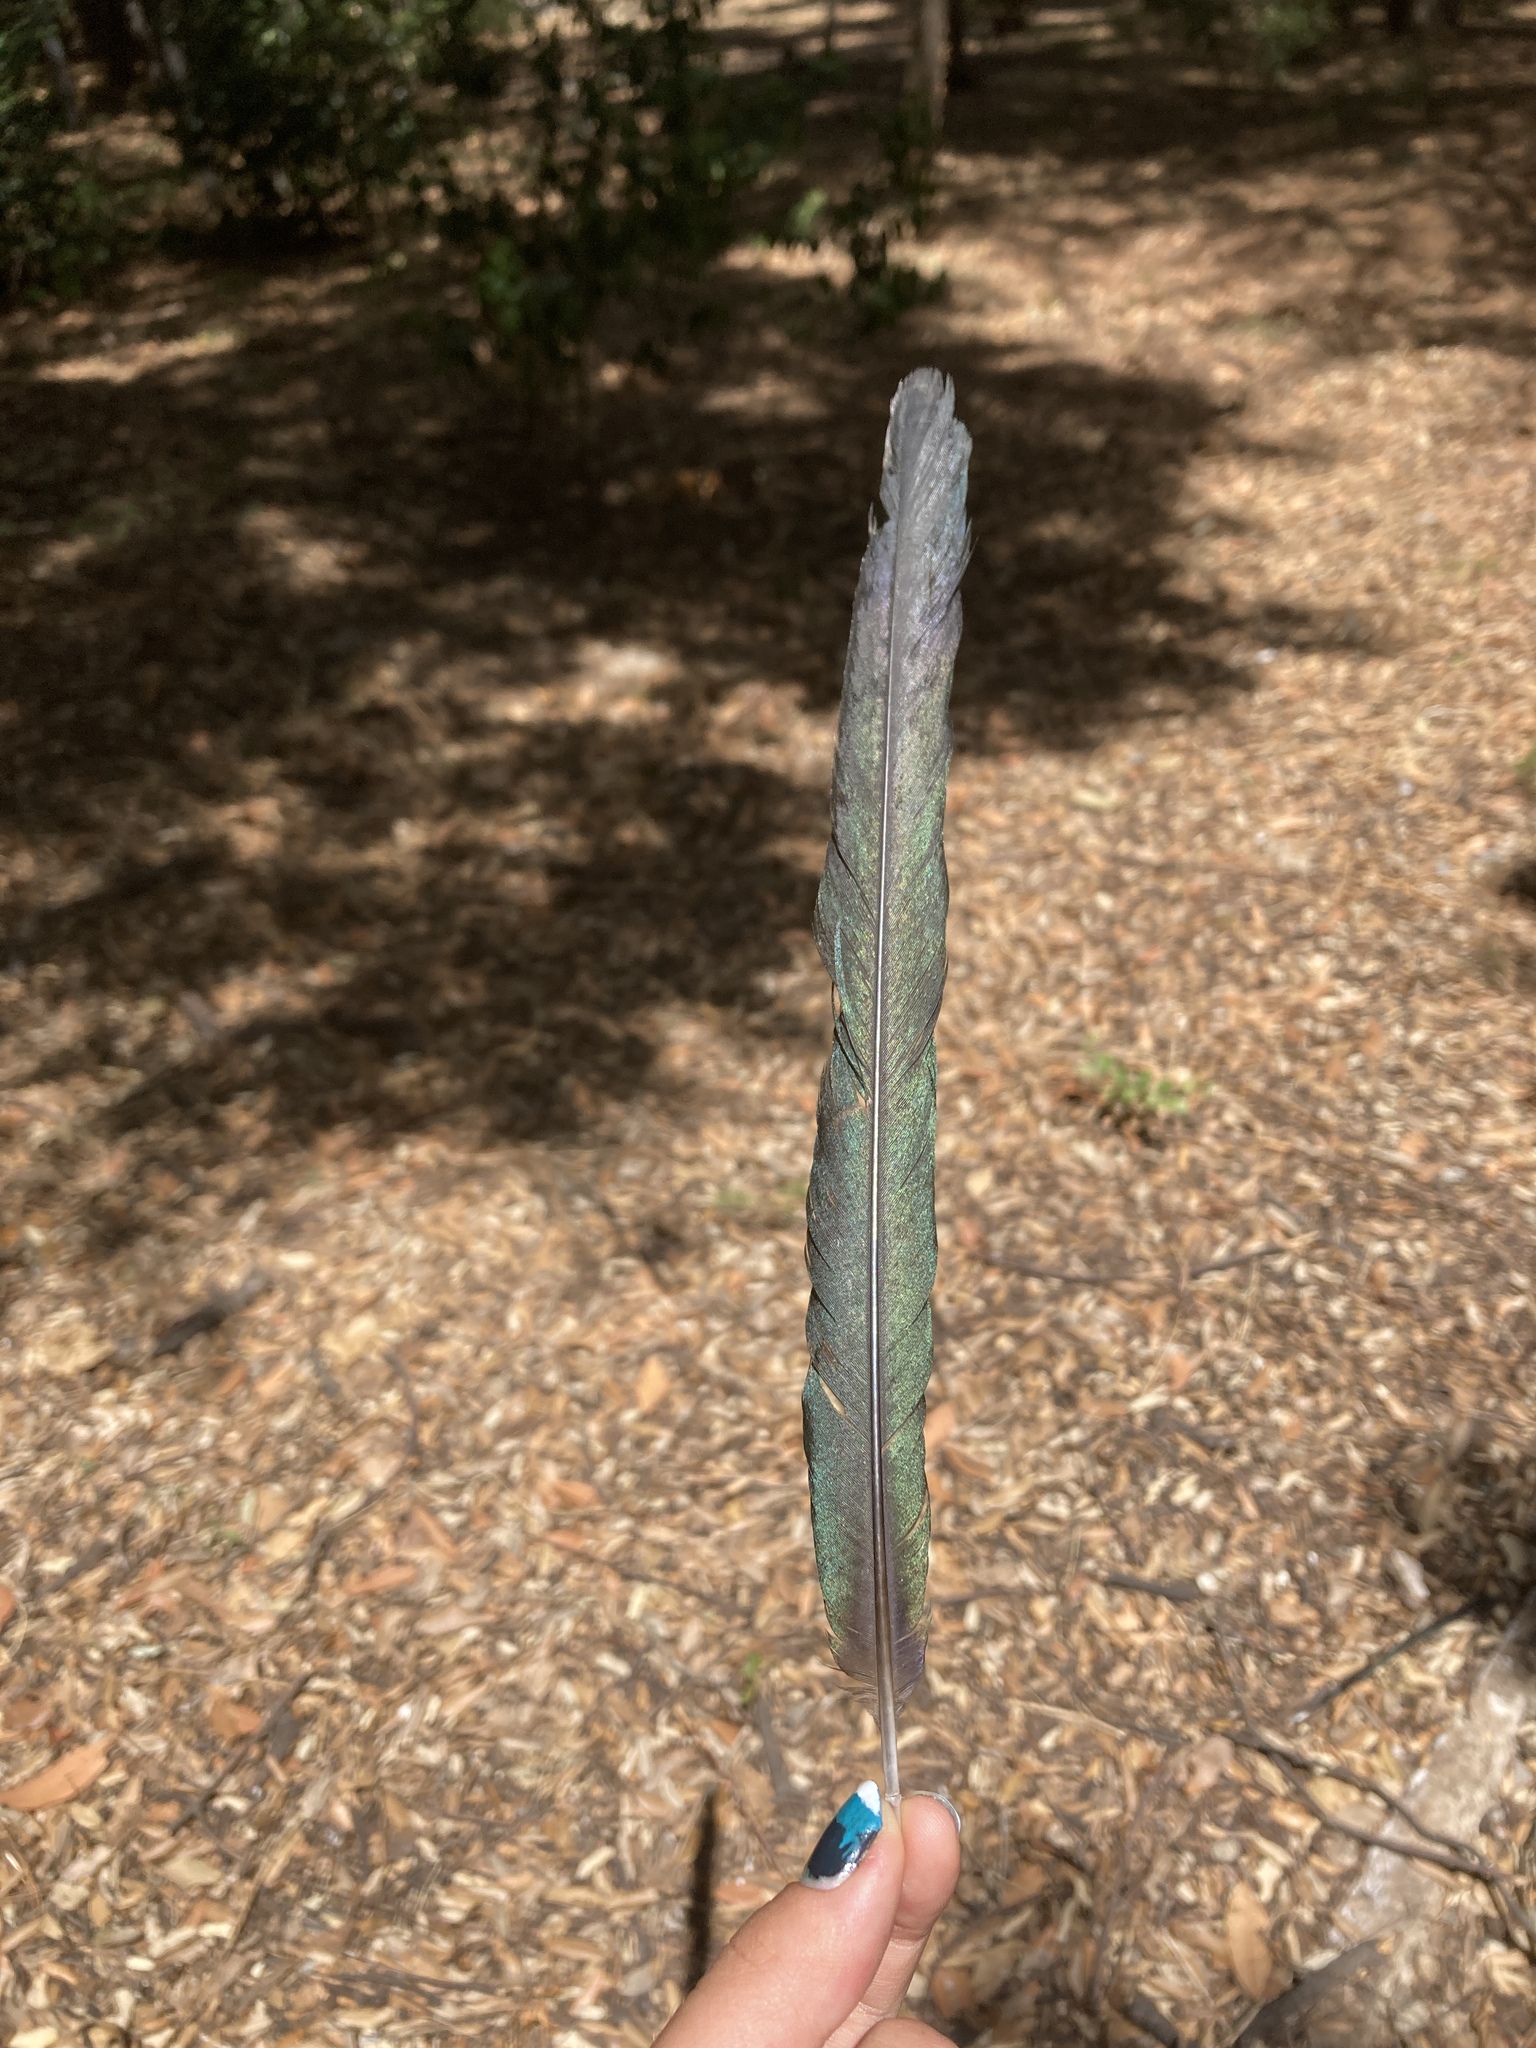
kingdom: Animalia
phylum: Chordata
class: Aves
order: Passeriformes
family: Corvidae
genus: Pica
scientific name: Pica pica
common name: Eurasian magpie
